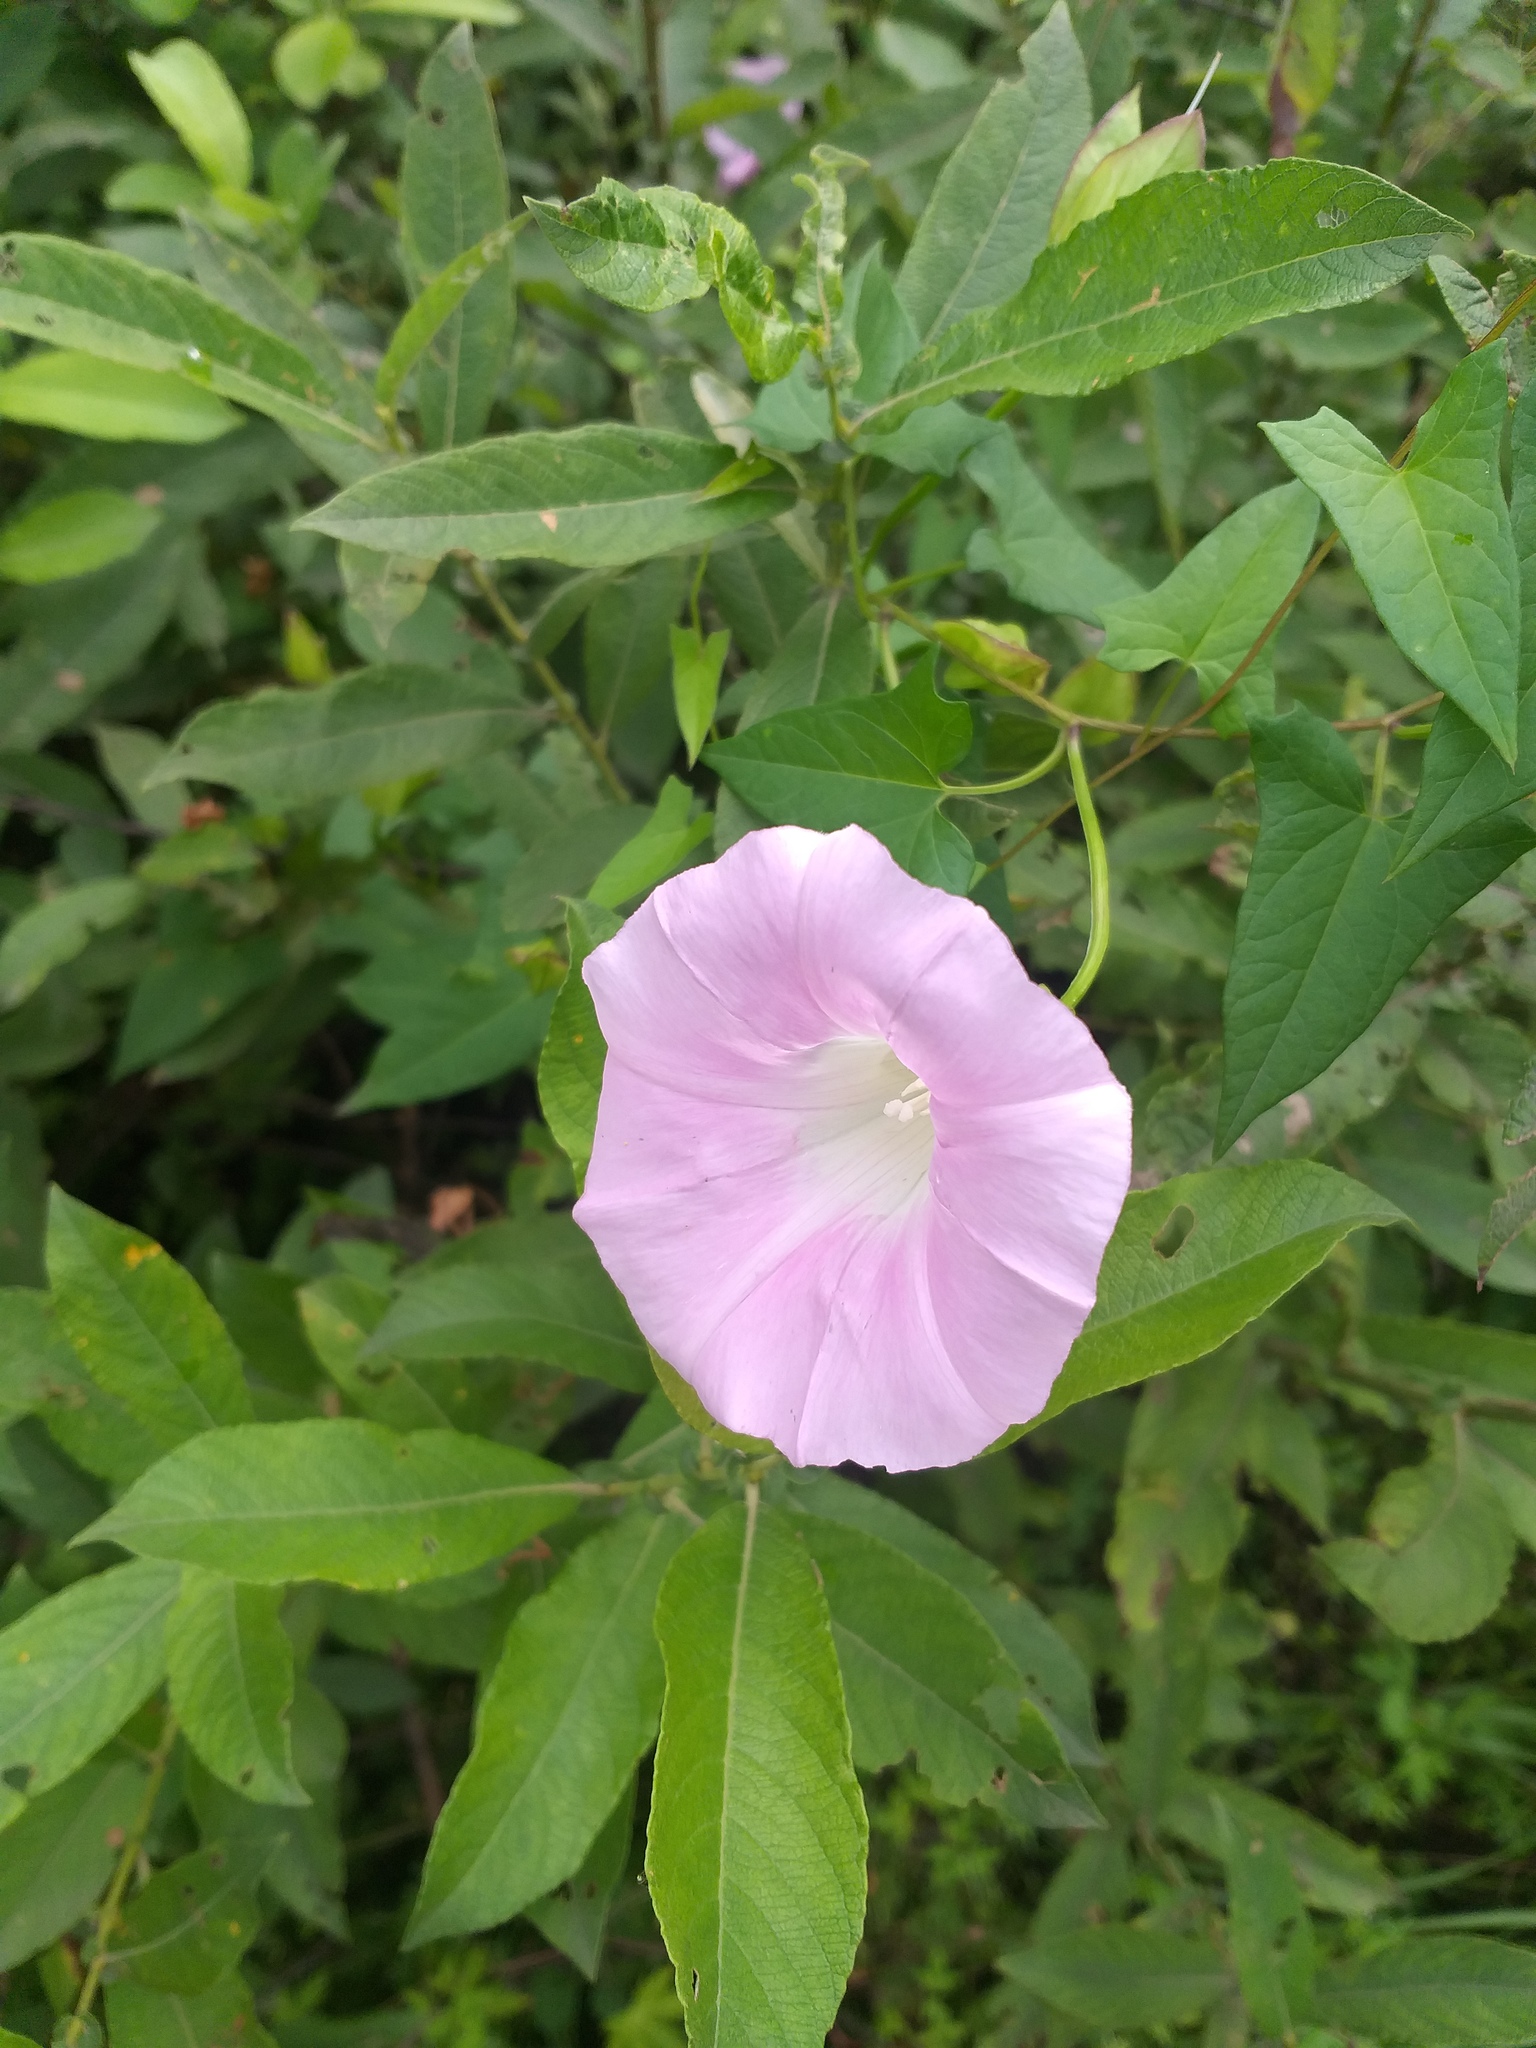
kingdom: Plantae
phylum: Tracheophyta
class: Magnoliopsida
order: Solanales
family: Convolvulaceae
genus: Calystegia
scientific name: Calystegia sepium
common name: Hedge bindweed
